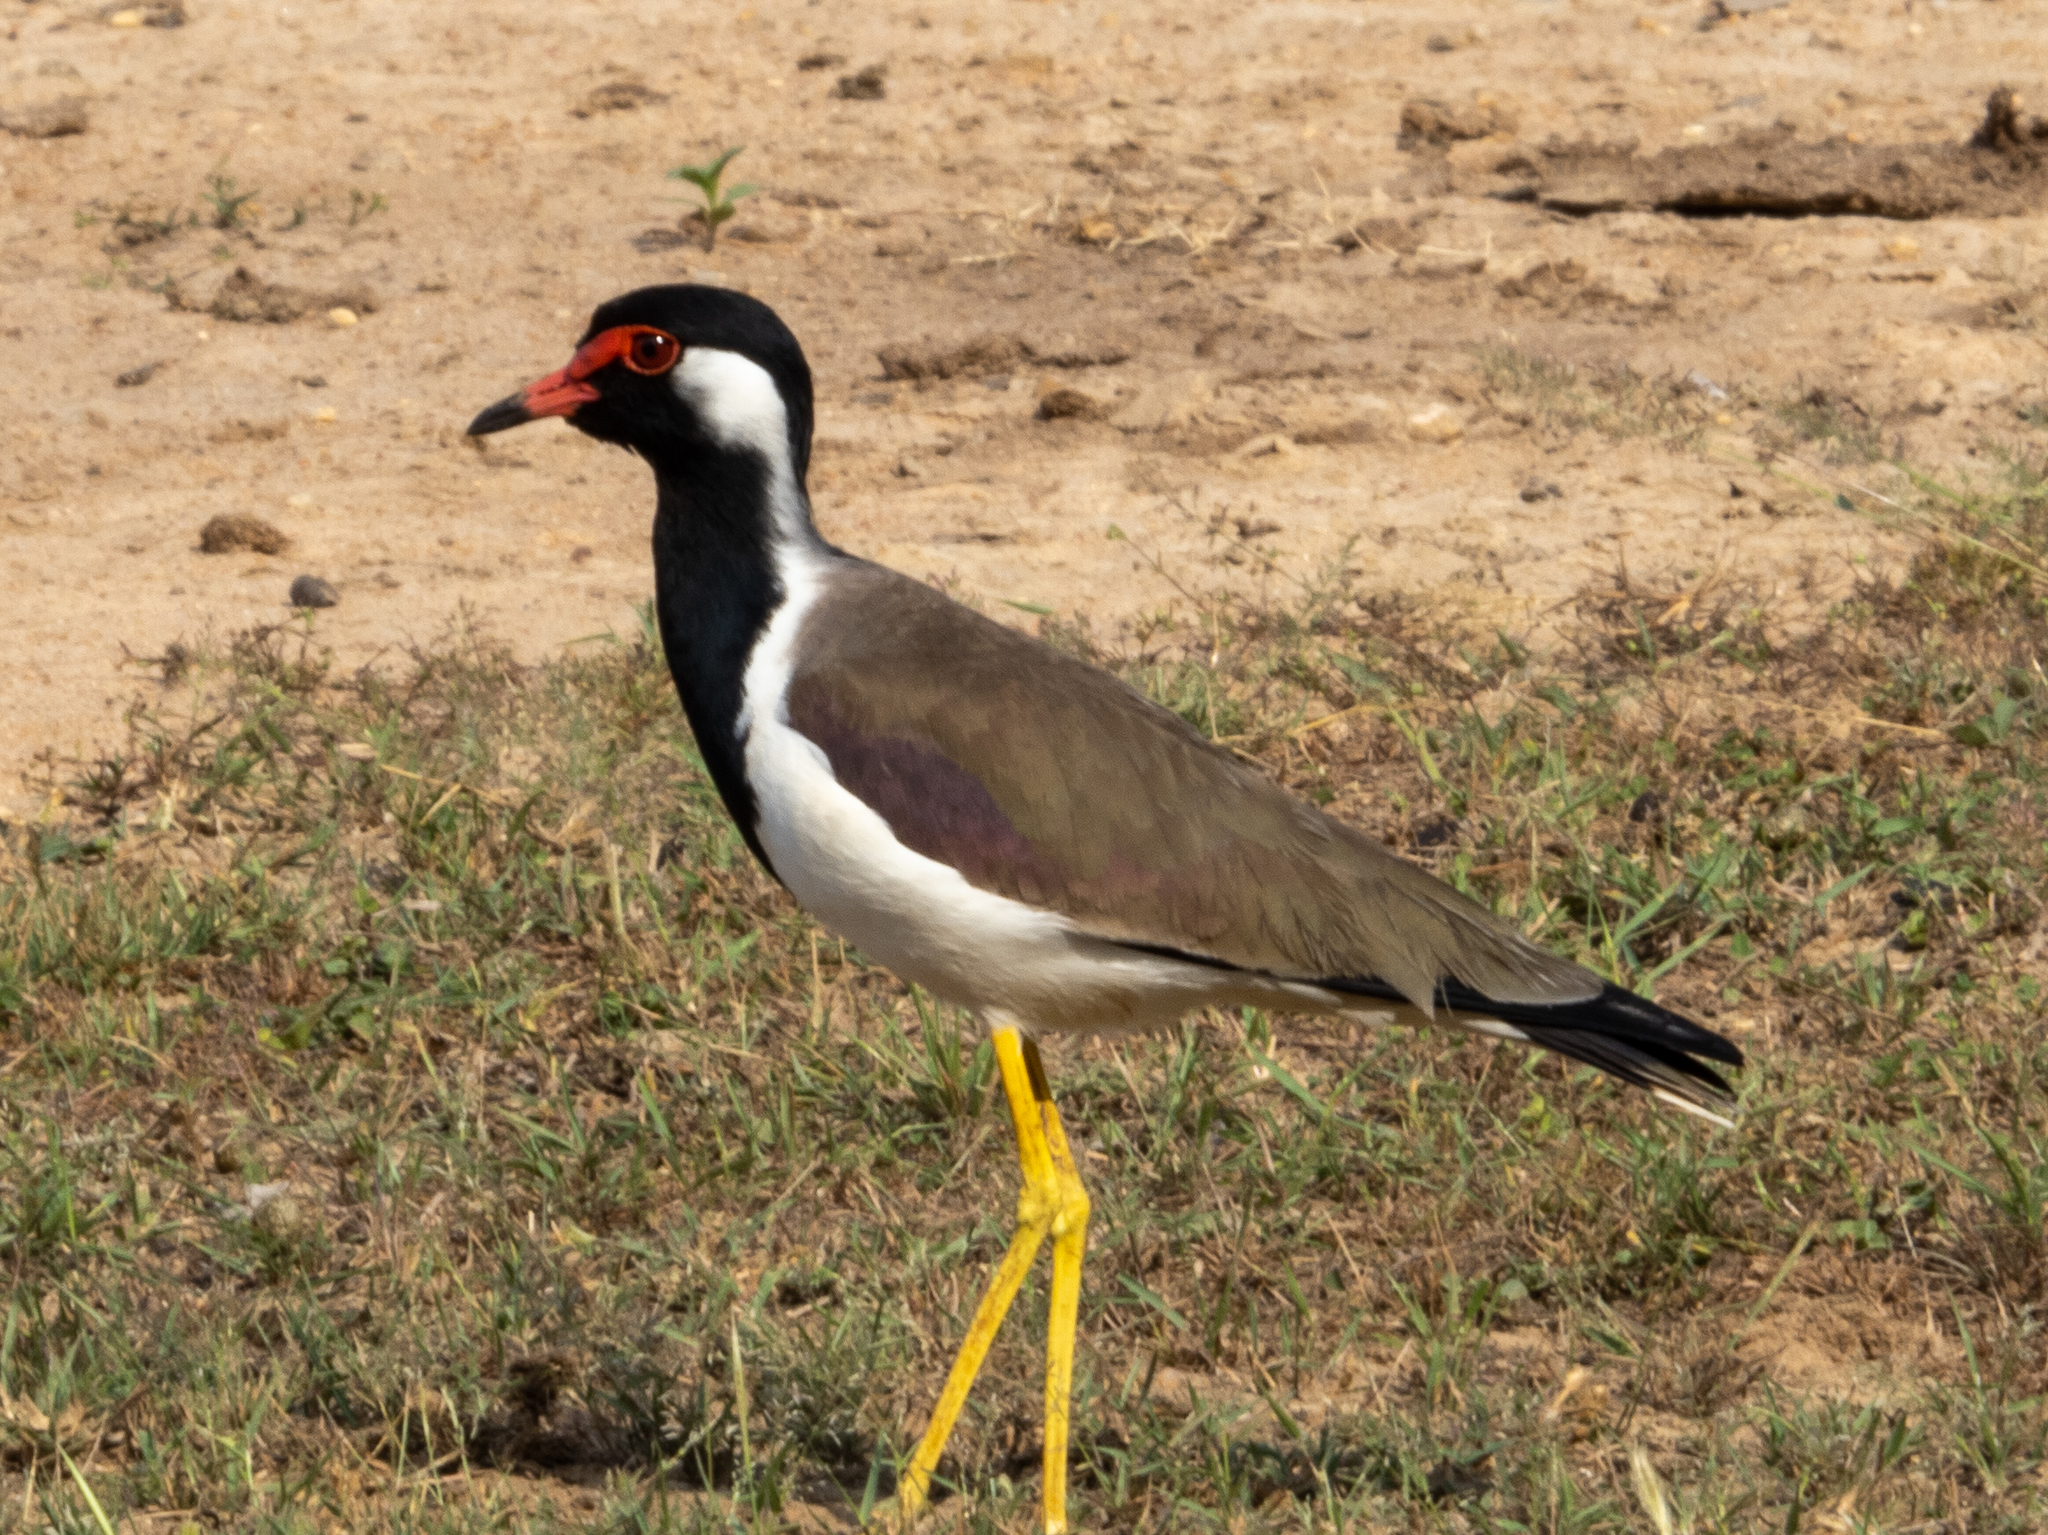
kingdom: Animalia
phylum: Chordata
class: Aves
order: Charadriiformes
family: Charadriidae
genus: Vanellus
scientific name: Vanellus indicus
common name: Red-wattled lapwing
